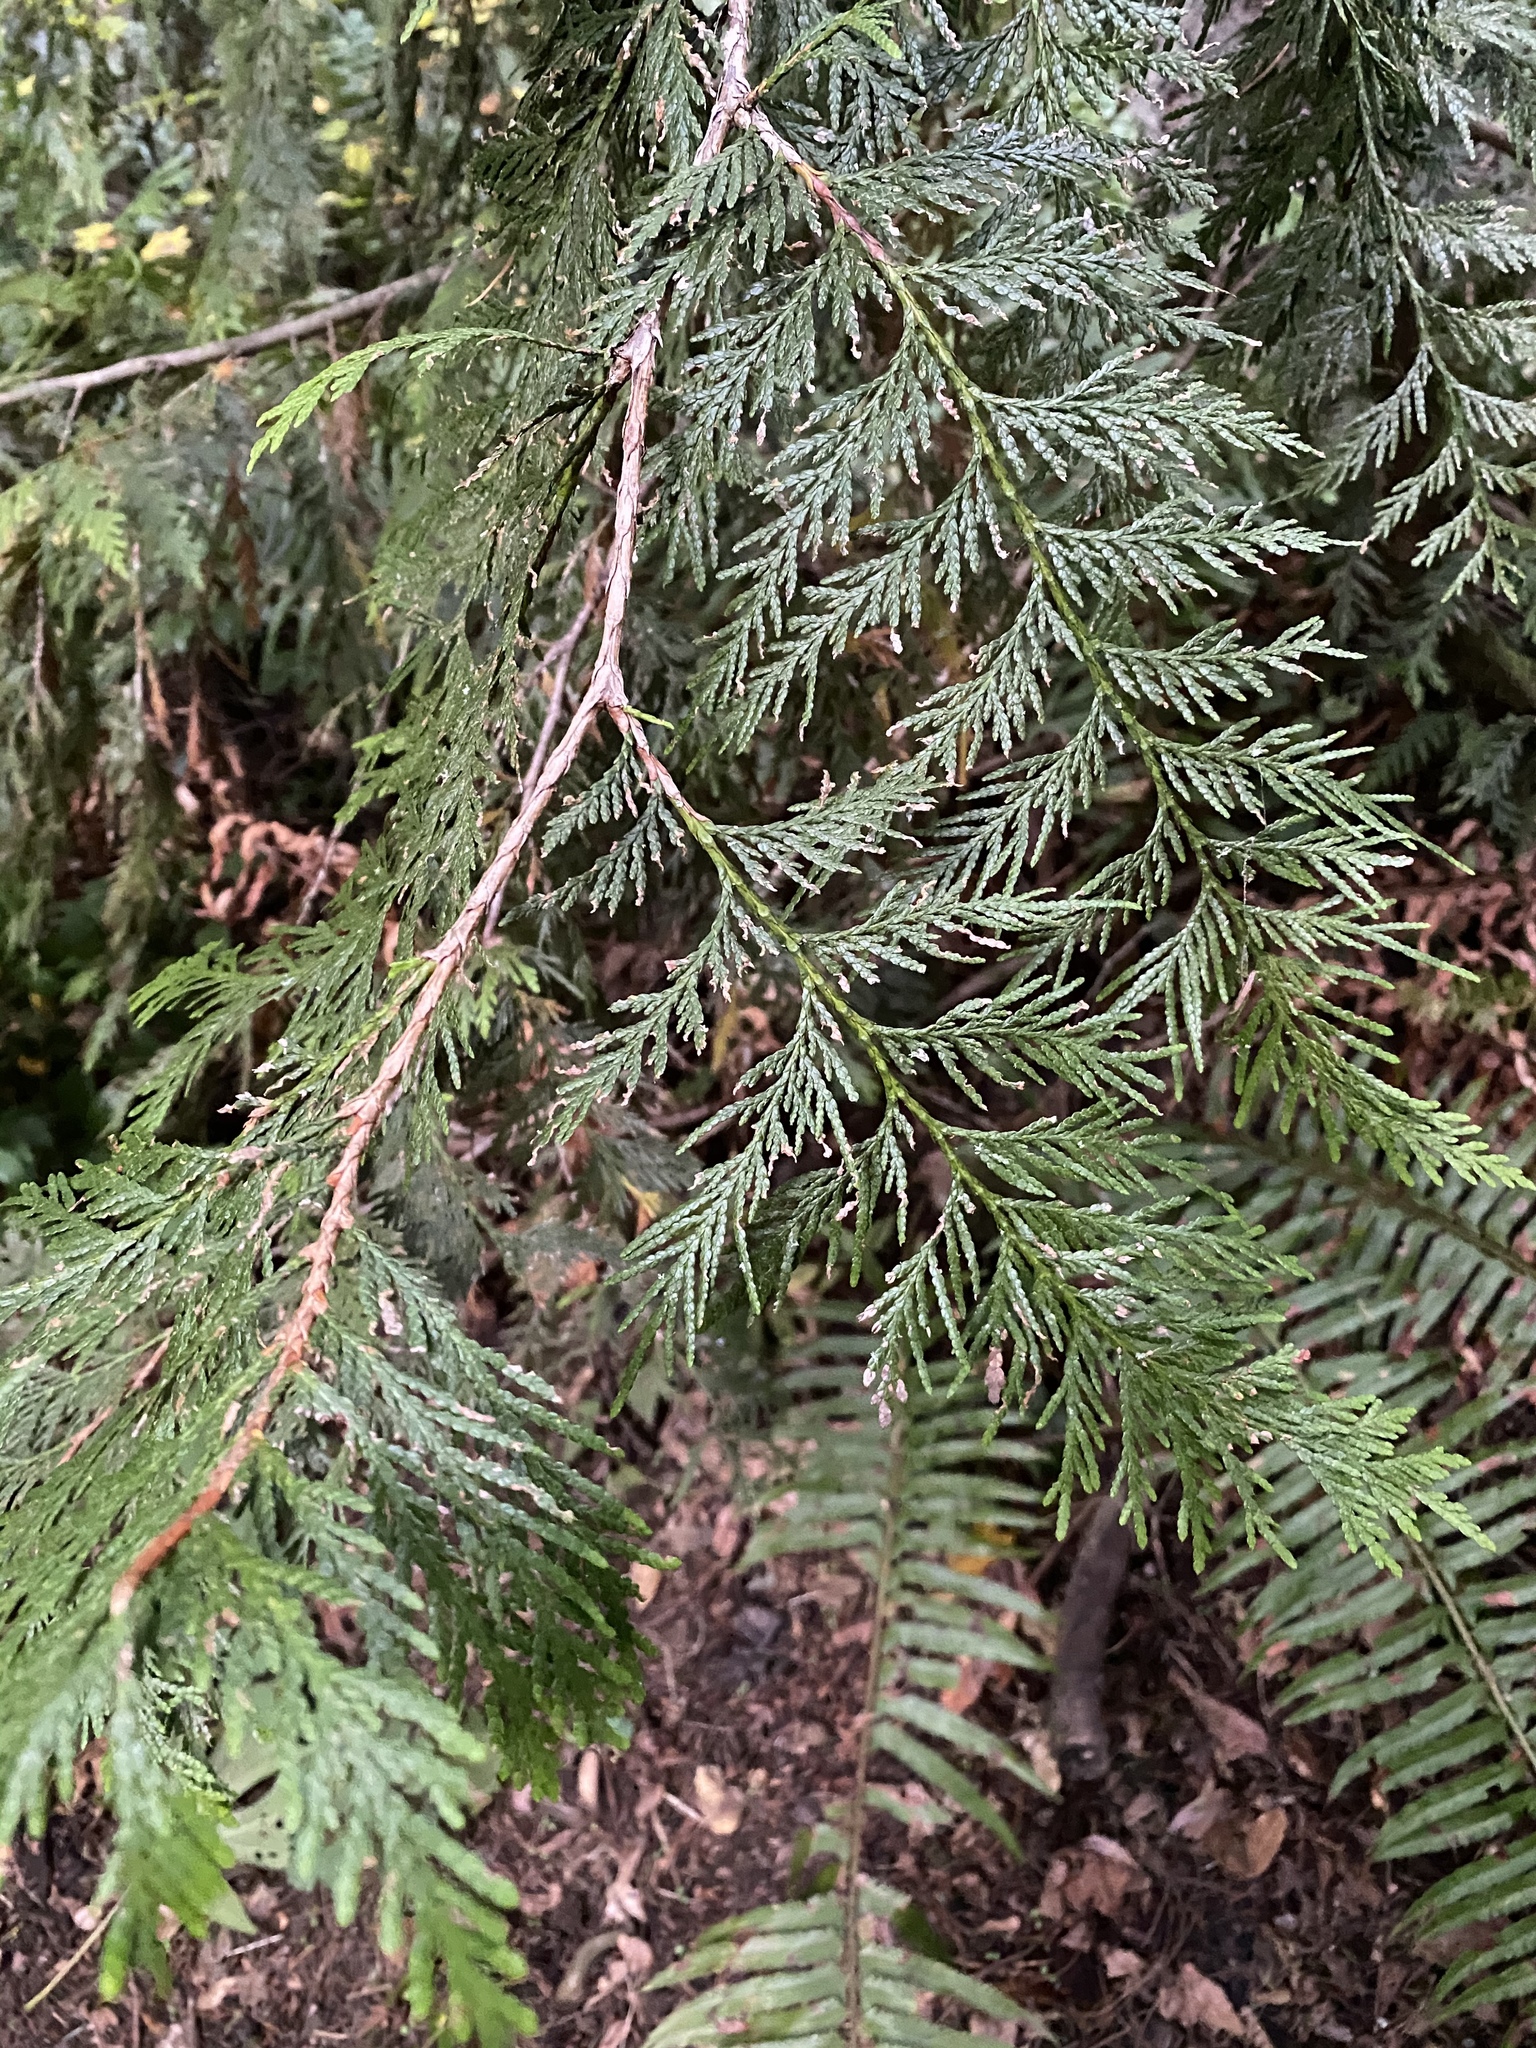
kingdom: Plantae
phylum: Tracheophyta
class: Pinopsida
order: Pinales
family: Cupressaceae
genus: Thuja
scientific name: Thuja plicata
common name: Western red-cedar
